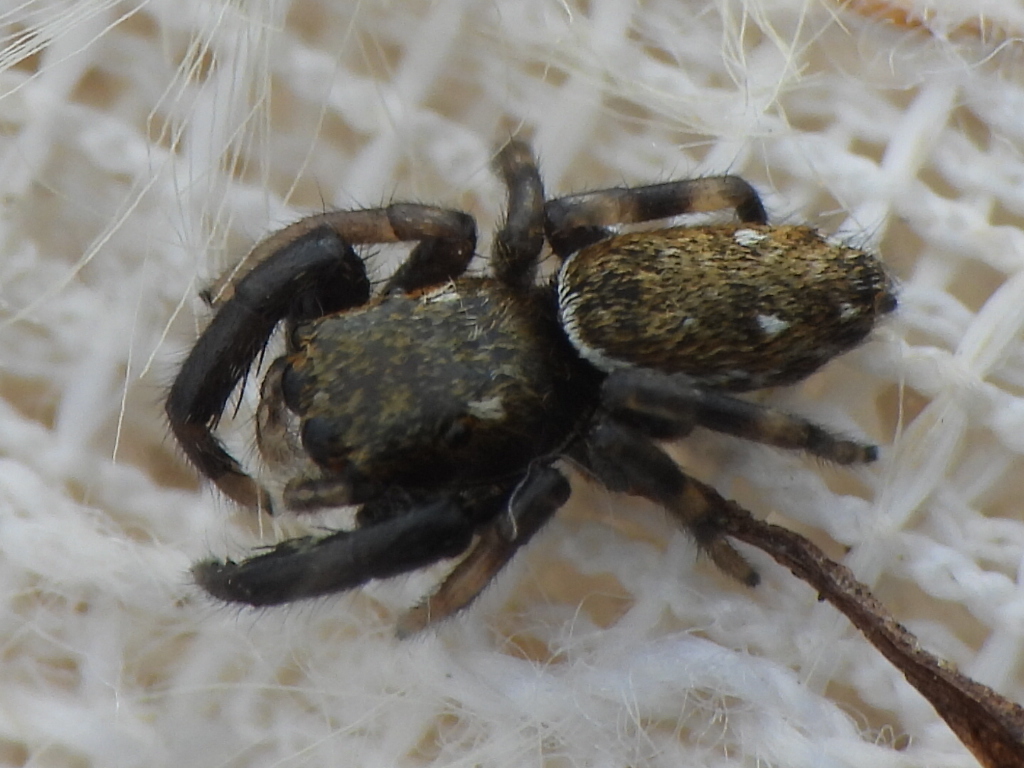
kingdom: Animalia
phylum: Arthropoda
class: Arachnida
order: Araneae
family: Salticidae
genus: Marpissa
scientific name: Marpissa formosa
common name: Short-bellied slender jumping spider
